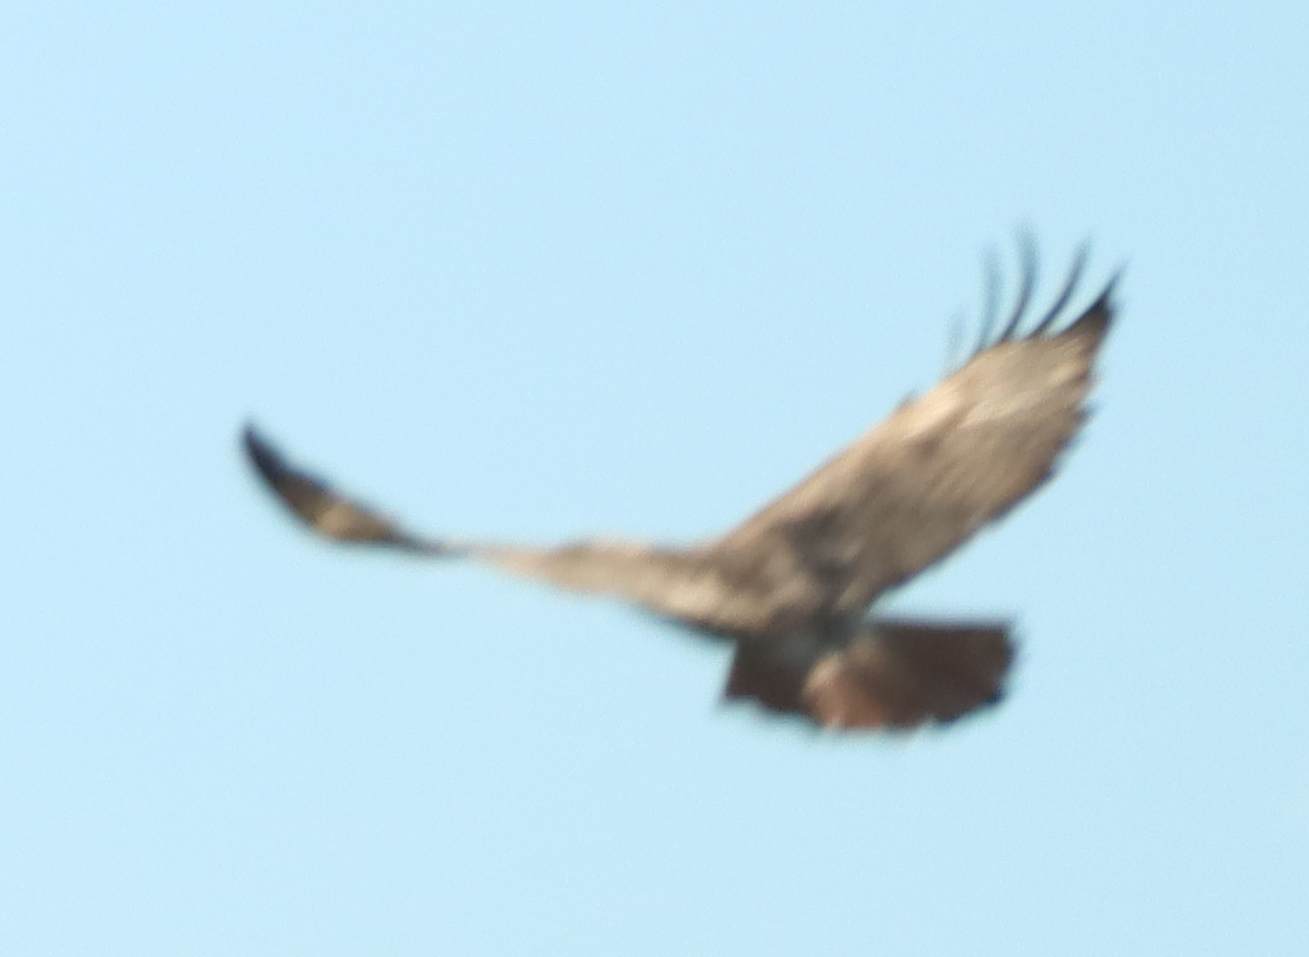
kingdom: Animalia
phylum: Chordata
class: Aves
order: Accipitriformes
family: Accipitridae
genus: Buteo
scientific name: Buteo jamaicensis
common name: Red-tailed hawk
